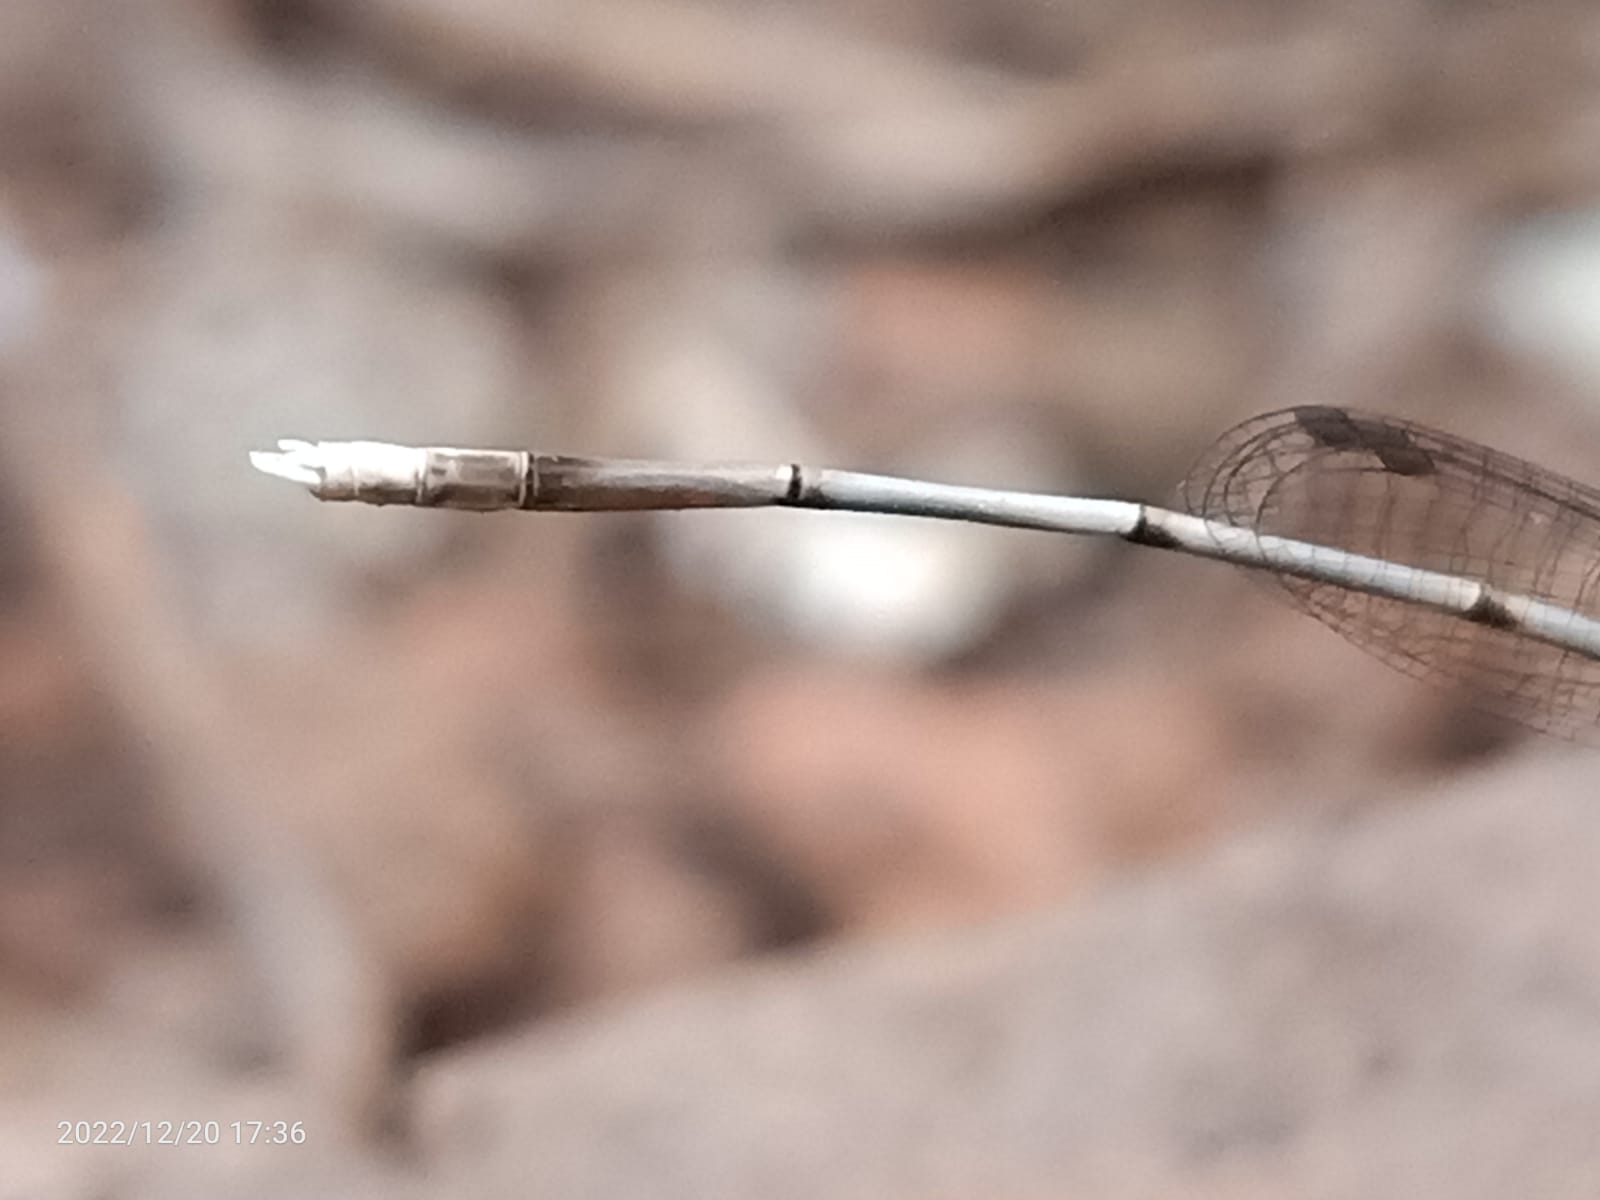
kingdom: Animalia
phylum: Arthropoda
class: Insecta
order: Odonata
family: Platycnemididae
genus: Copera
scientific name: Copera vittata
